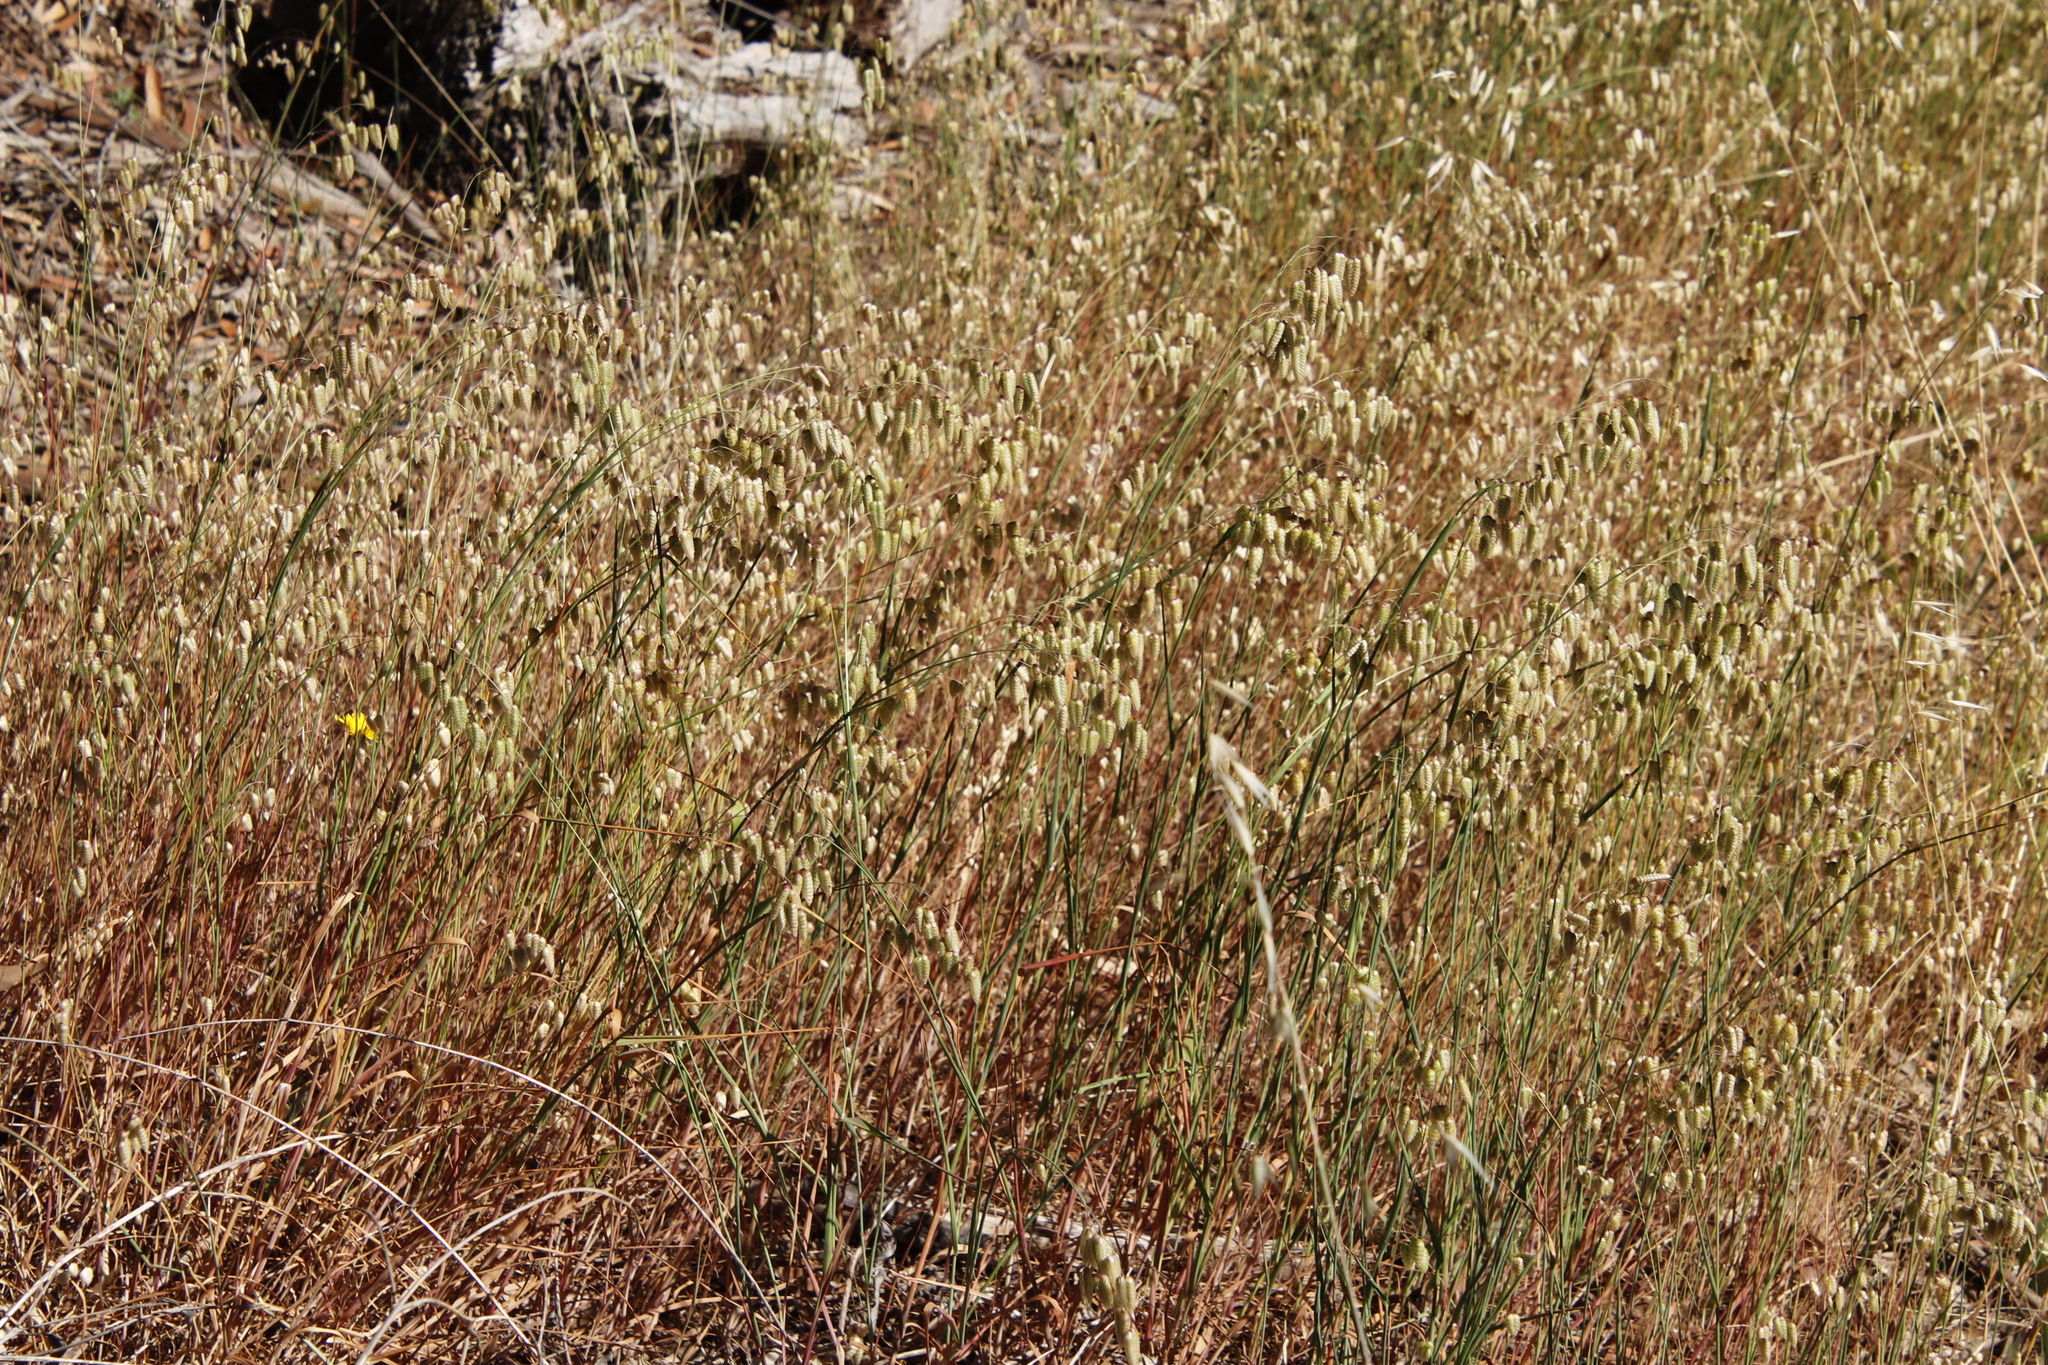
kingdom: Plantae
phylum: Tracheophyta
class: Liliopsida
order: Poales
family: Poaceae
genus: Briza
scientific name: Briza maxima
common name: Big quakinggrass
